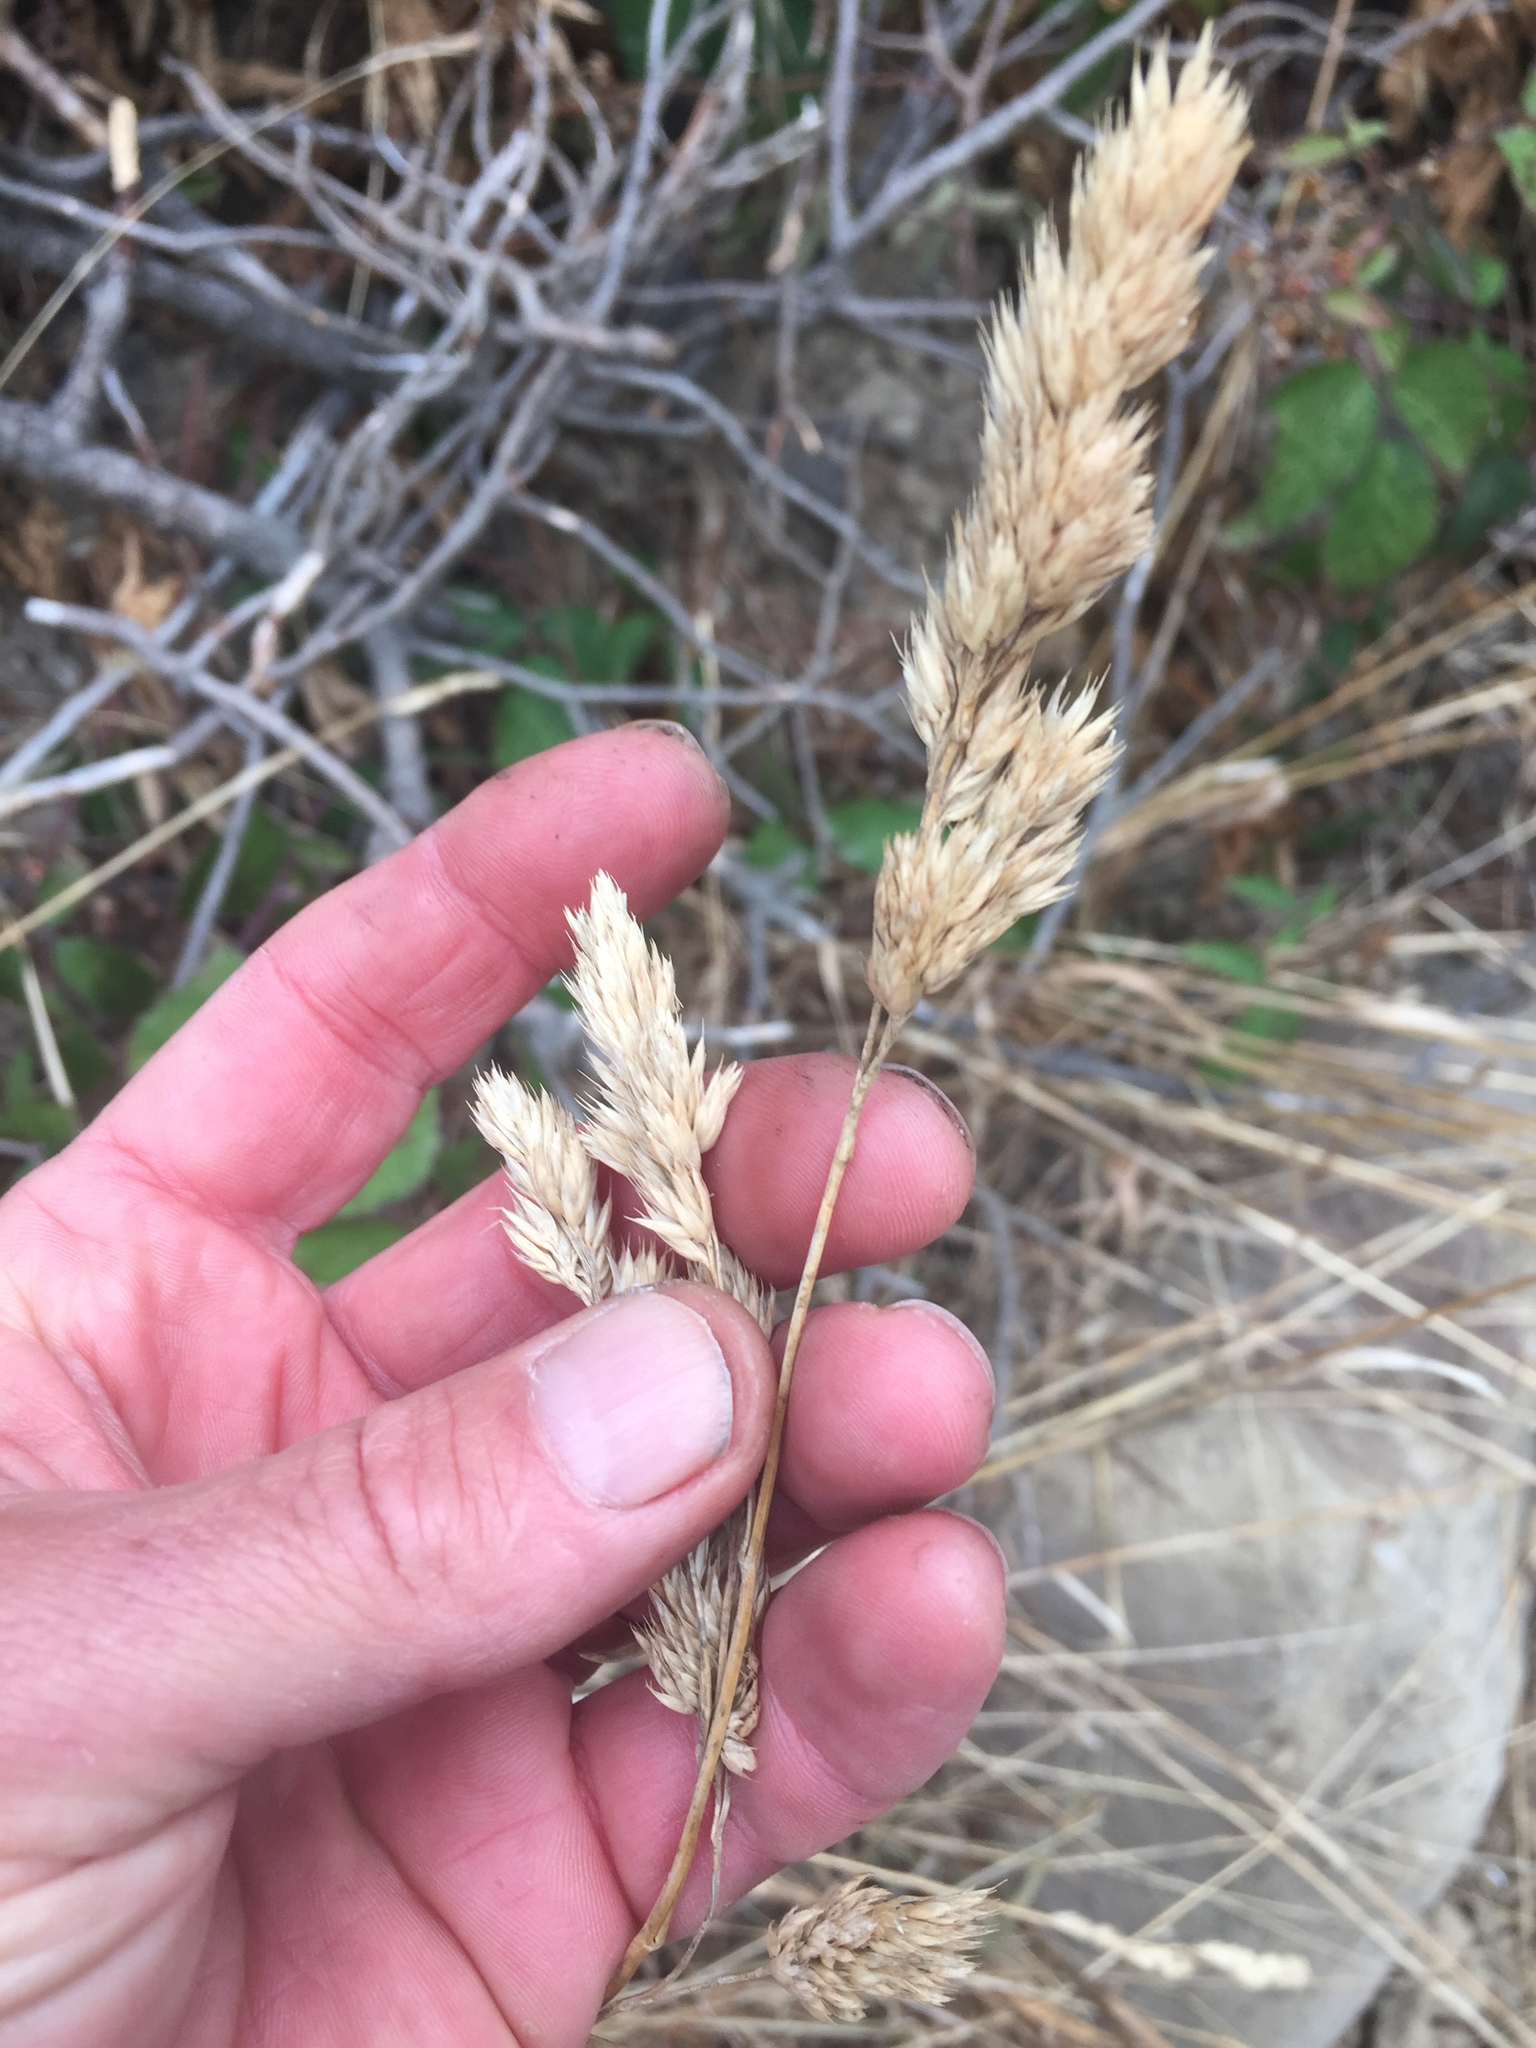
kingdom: Plantae
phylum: Tracheophyta
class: Liliopsida
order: Poales
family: Poaceae
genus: Dactylis
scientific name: Dactylis glomerata
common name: Orchardgrass
